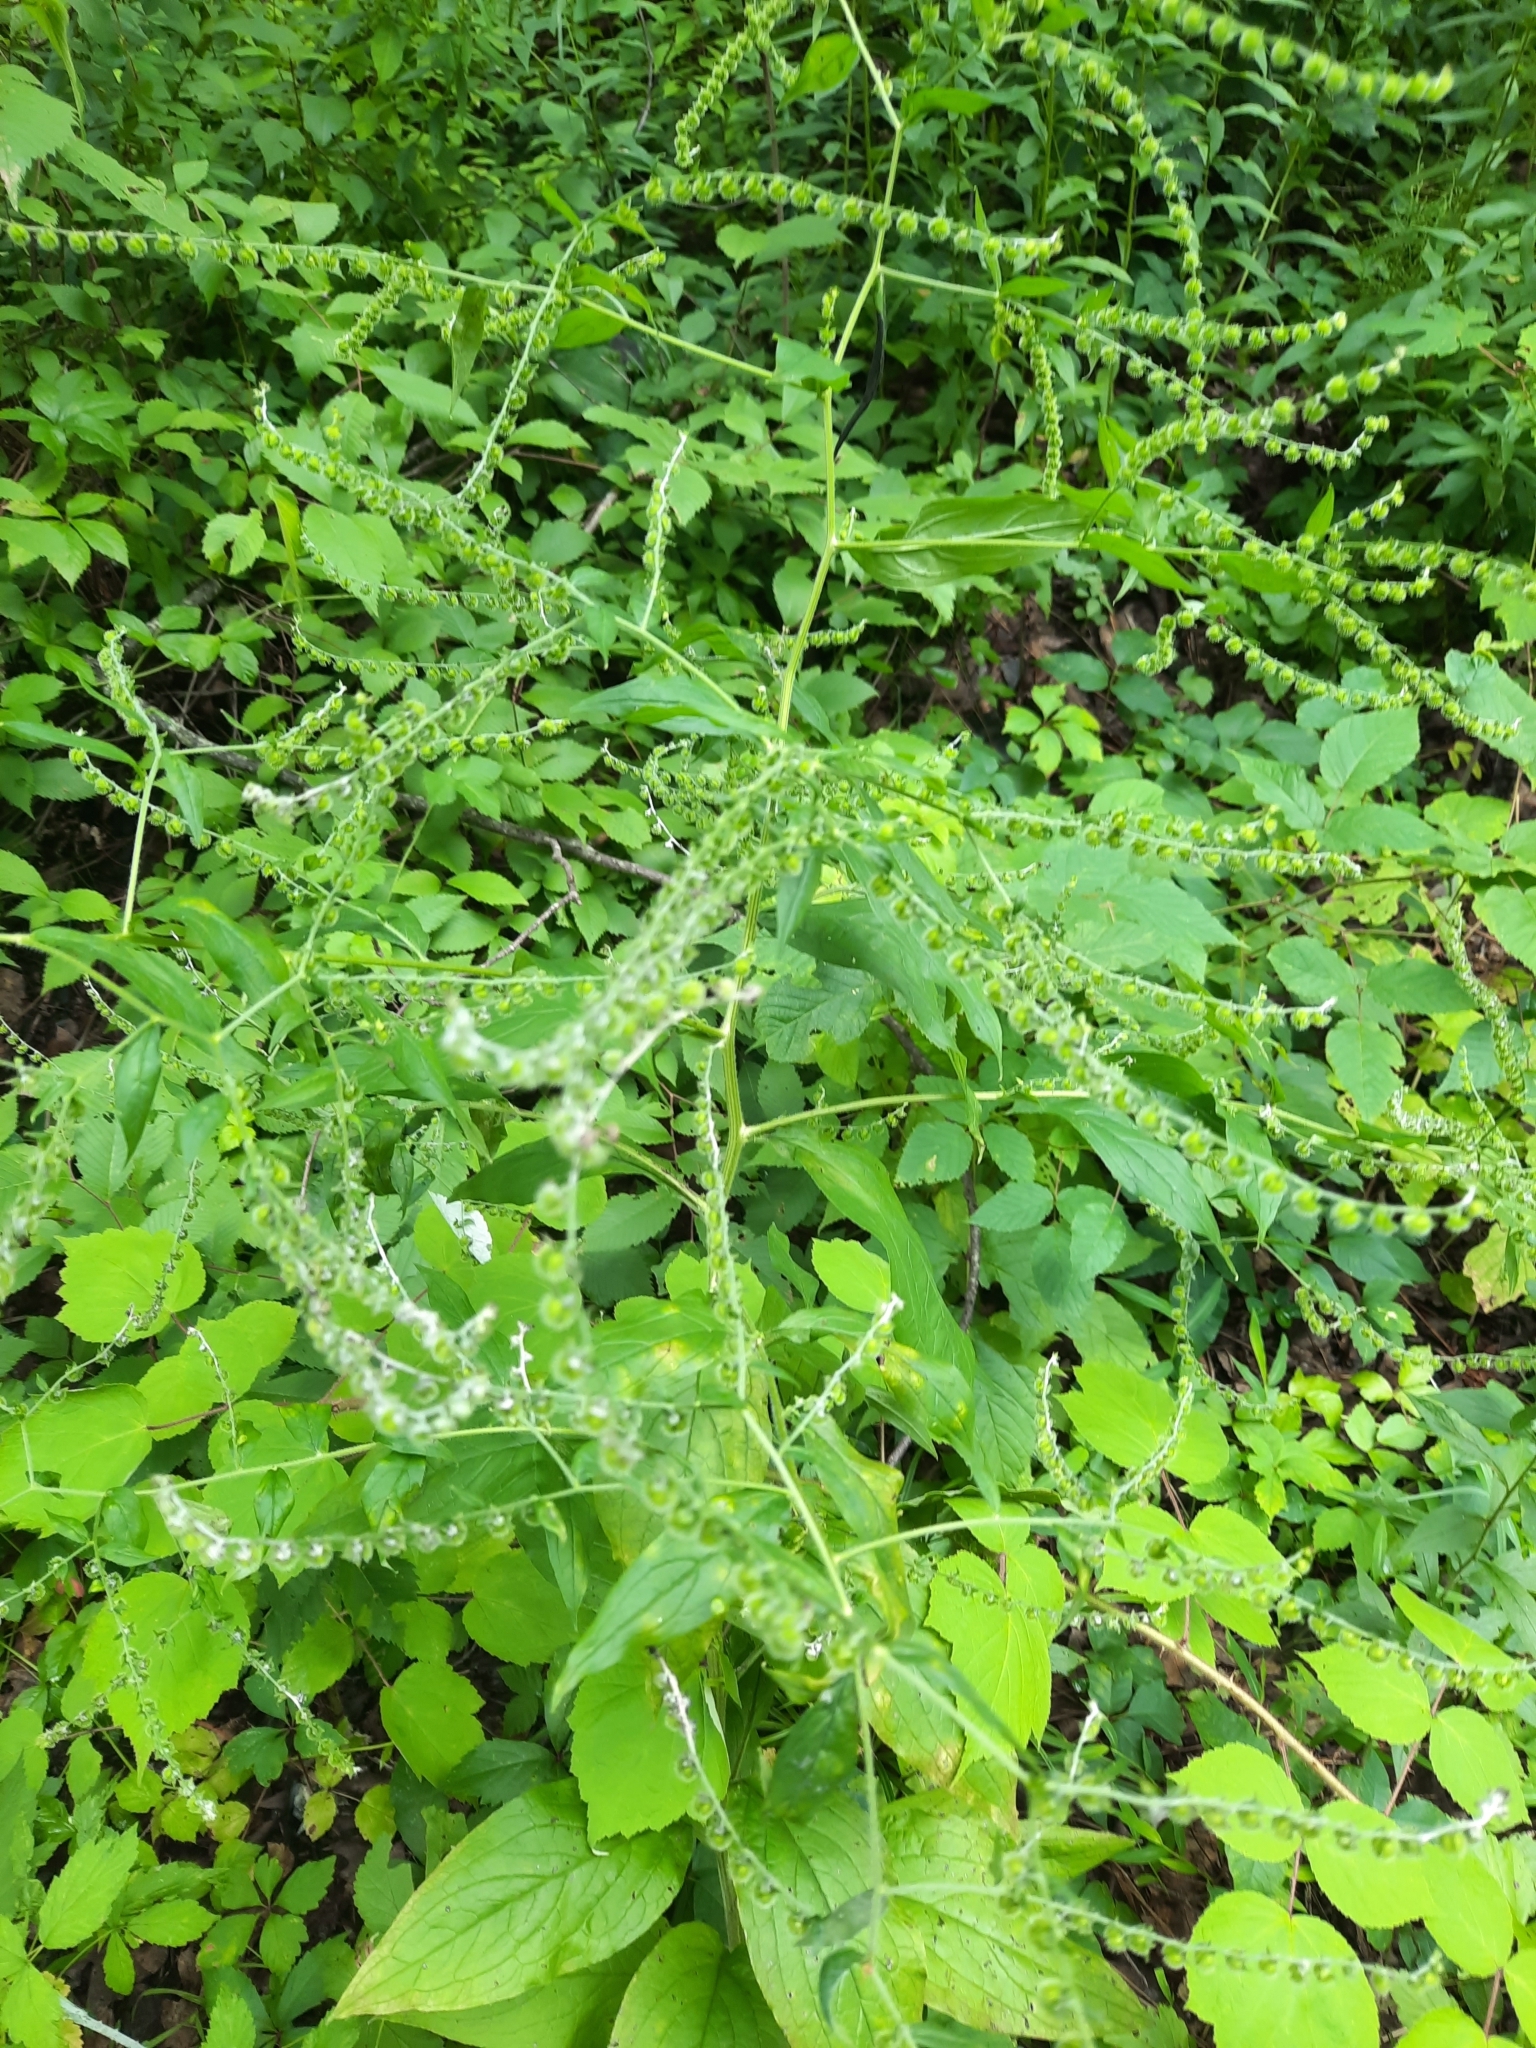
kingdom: Plantae
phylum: Tracheophyta
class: Magnoliopsida
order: Boraginales
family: Boraginaceae
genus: Hackelia
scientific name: Hackelia virginiana
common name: Beggar's-lice
